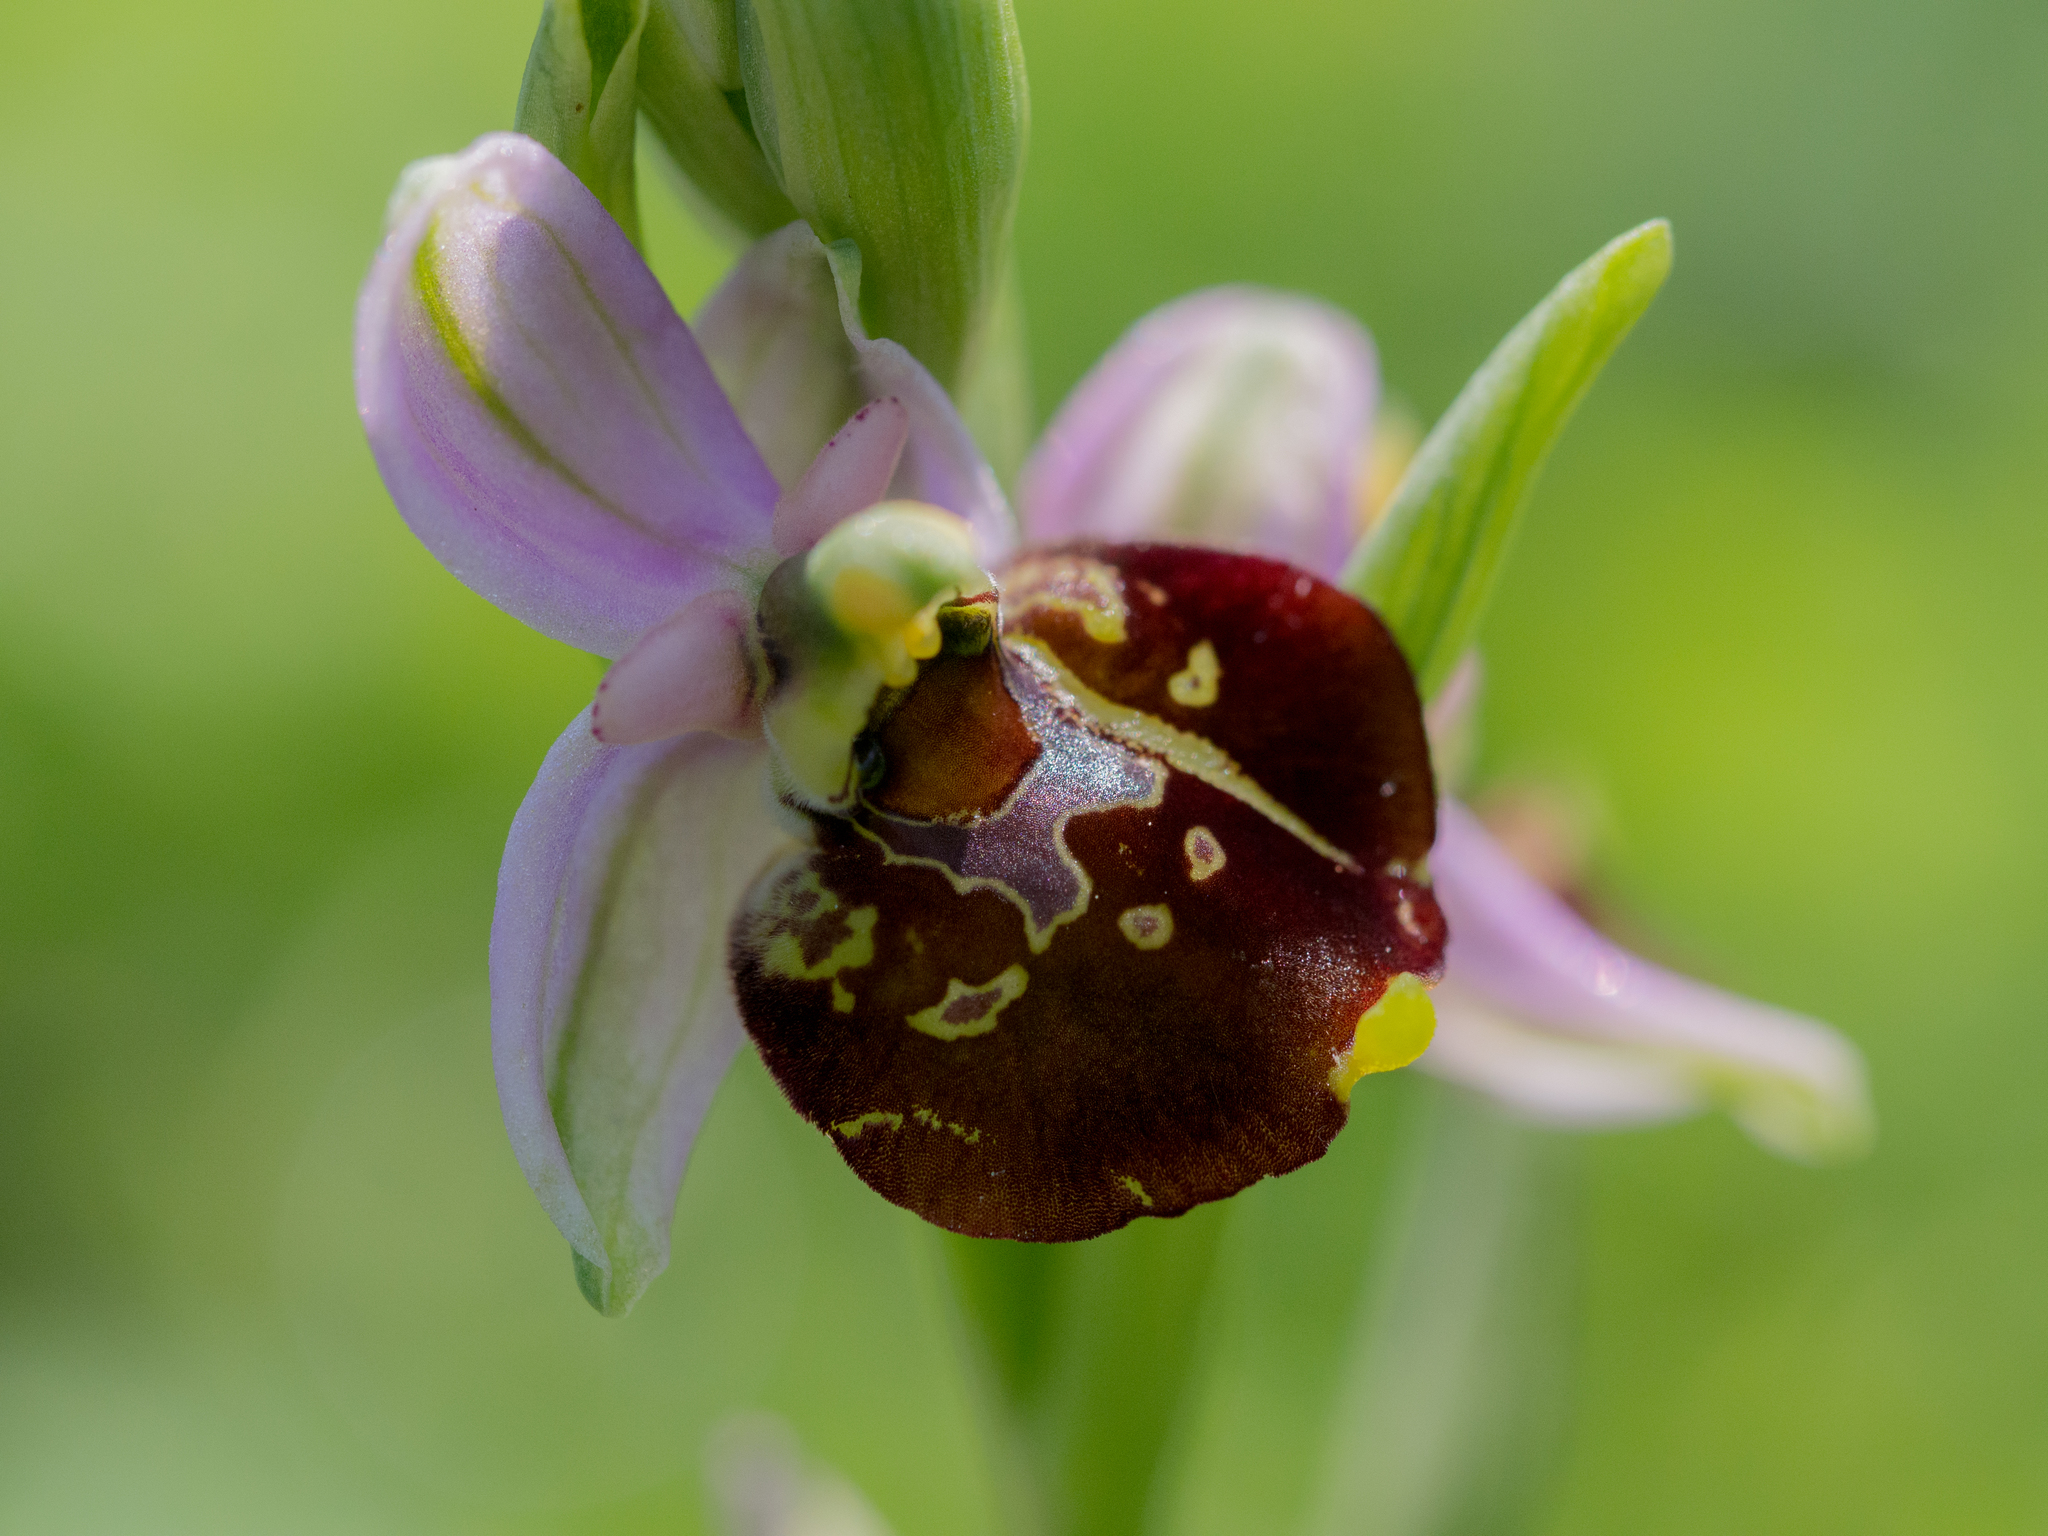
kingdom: Plantae
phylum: Tracheophyta
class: Liliopsida
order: Asparagales
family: Orchidaceae
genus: Ophrys
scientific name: Ophrys holosericea
